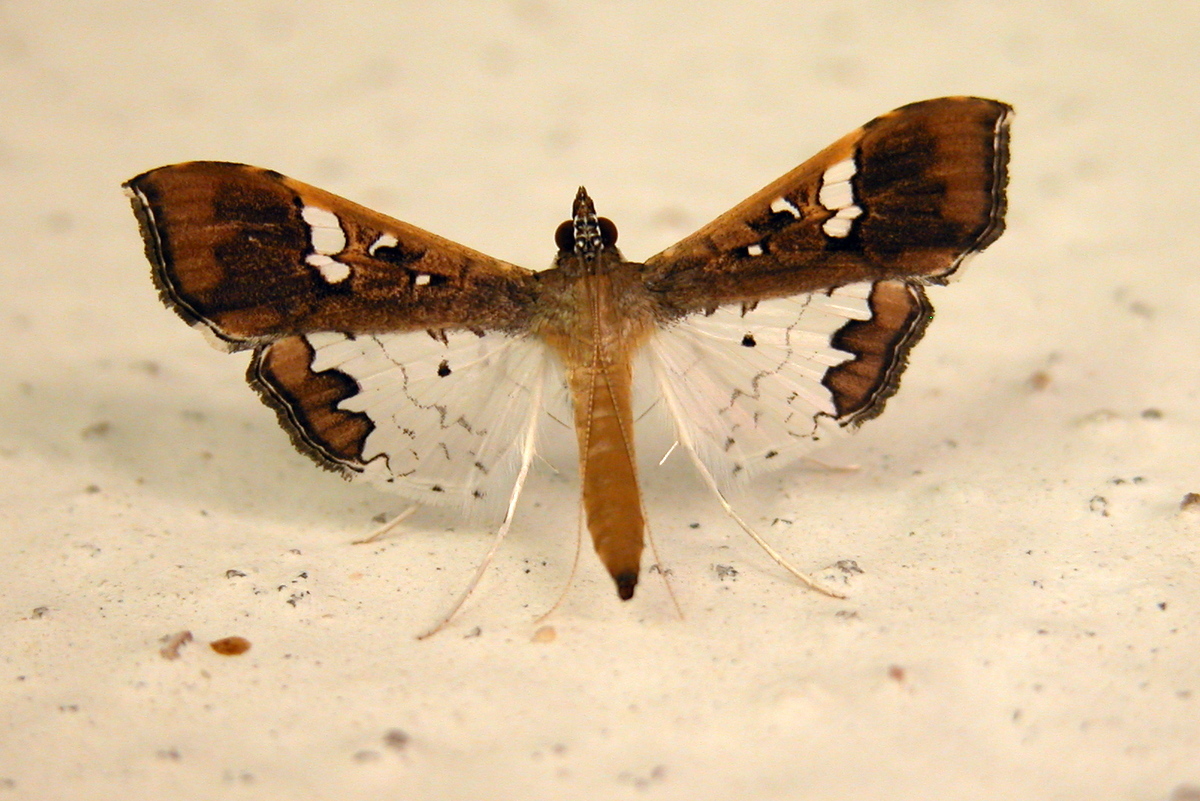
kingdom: Animalia
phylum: Arthropoda
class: Insecta
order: Lepidoptera
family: Crambidae
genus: Maruca
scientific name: Maruca vitrata
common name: Maruca pod borer
